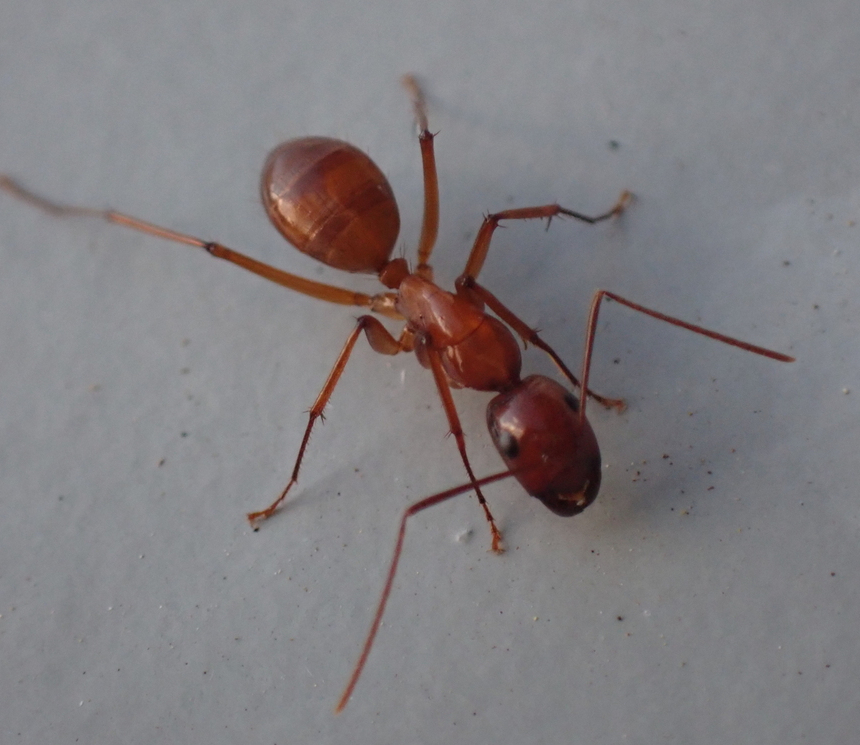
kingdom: Animalia
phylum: Arthropoda
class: Insecta
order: Hymenoptera
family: Formicidae
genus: Camponotus
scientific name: Camponotus castaneus
